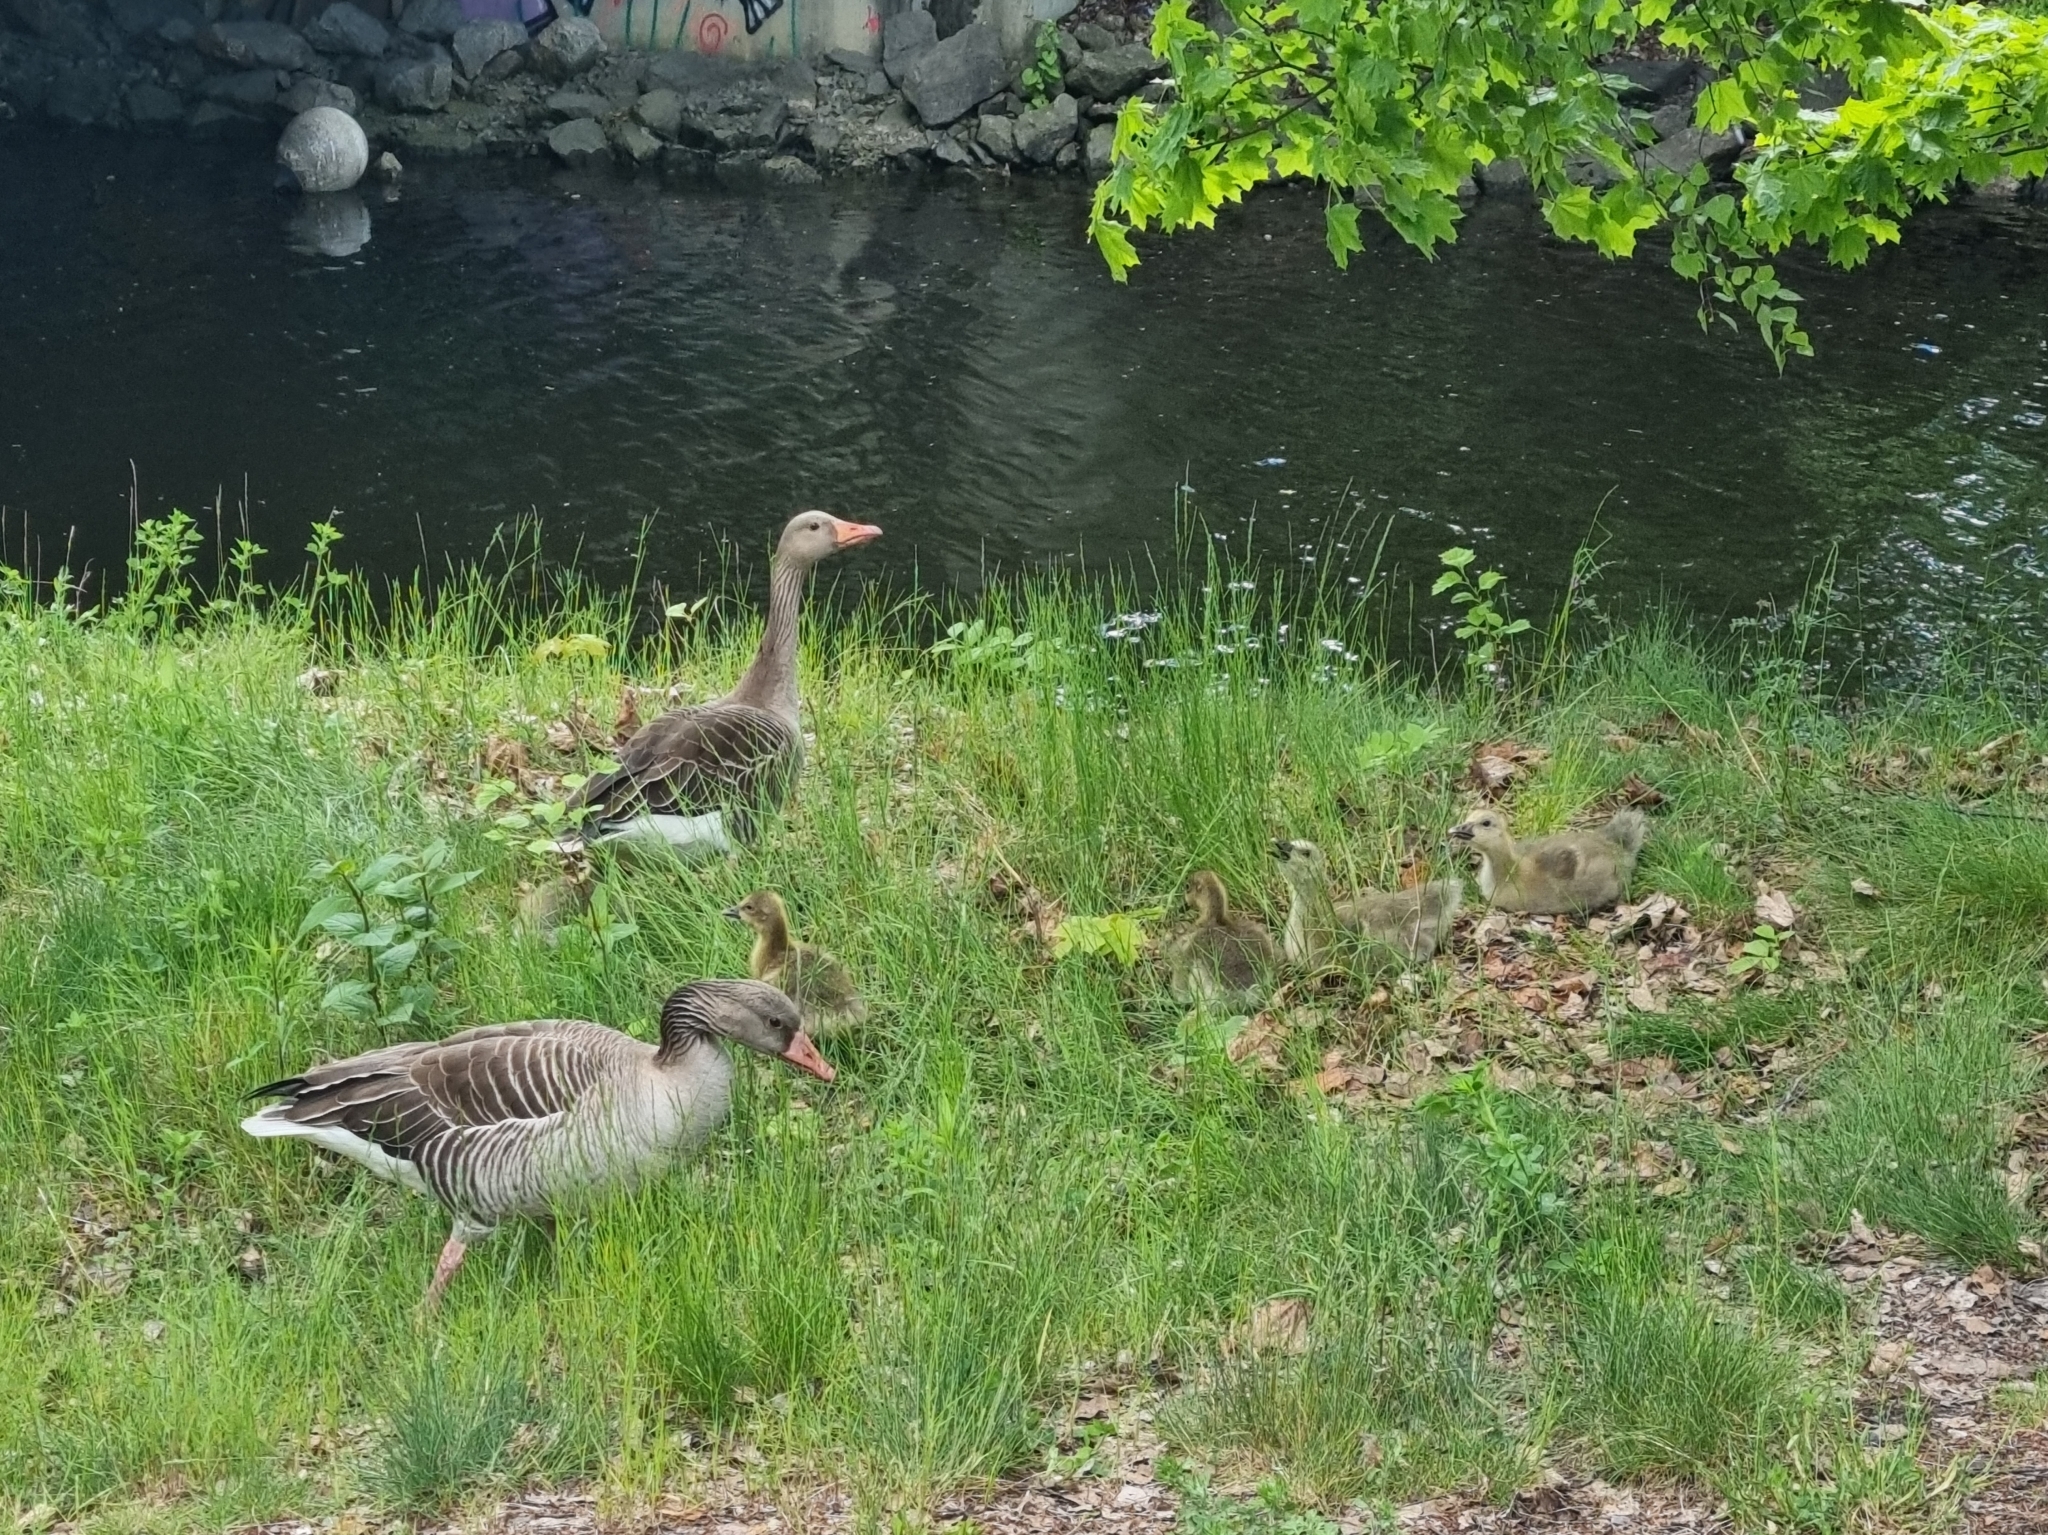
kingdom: Animalia
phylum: Chordata
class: Aves
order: Anseriformes
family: Anatidae
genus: Anser
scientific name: Anser anser
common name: Greylag goose
